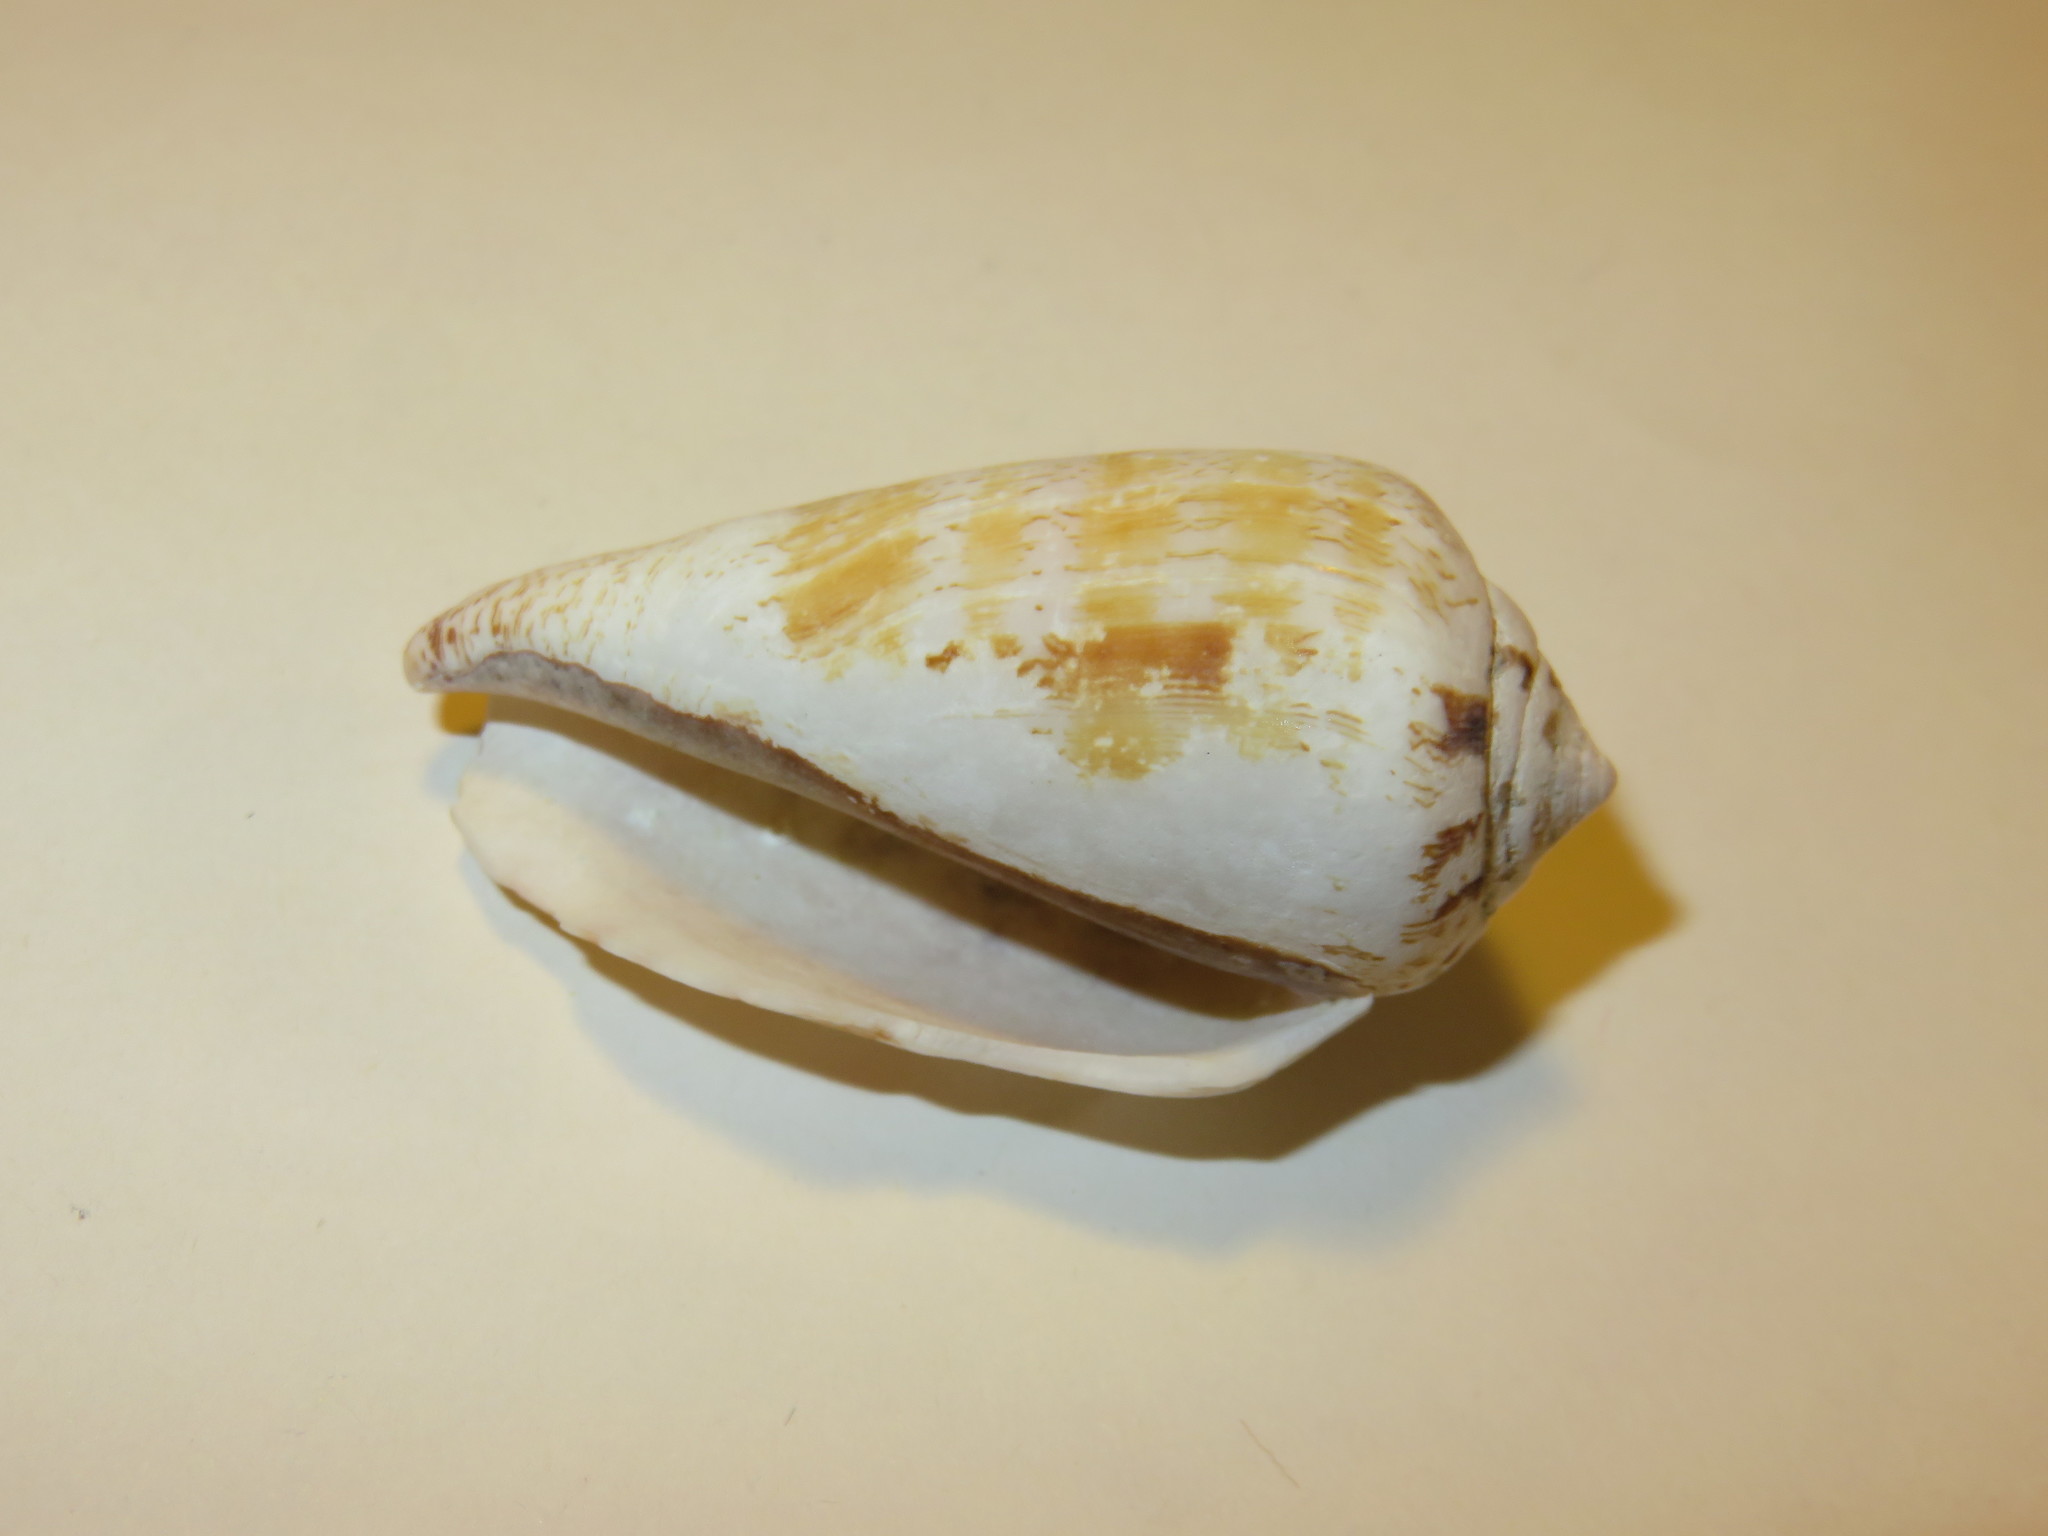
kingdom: Animalia
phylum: Mollusca
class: Gastropoda
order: Littorinimorpha
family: Strombidae
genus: Conomurex
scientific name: Conomurex luhuanus
